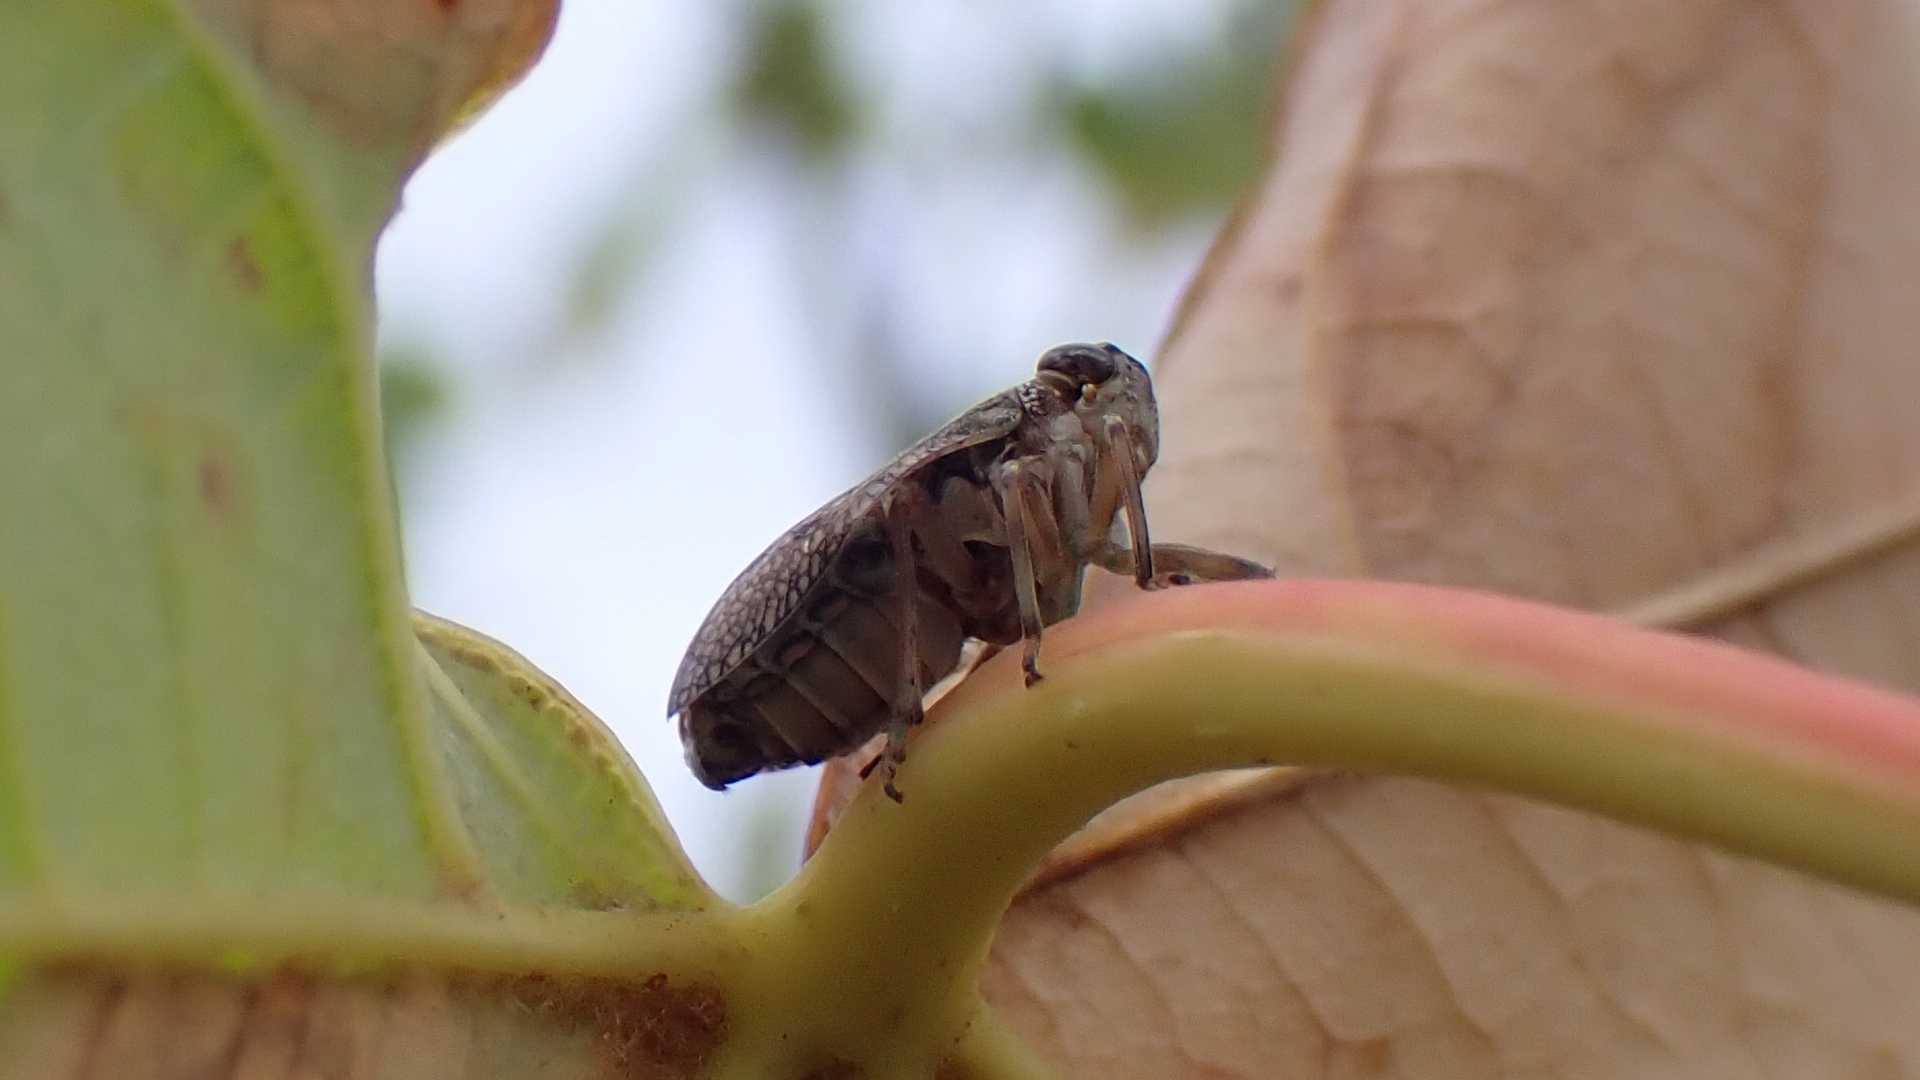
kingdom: Animalia
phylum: Arthropoda
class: Insecta
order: Hemiptera
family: Issidae
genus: Issus
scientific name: Issus coleoptratus
